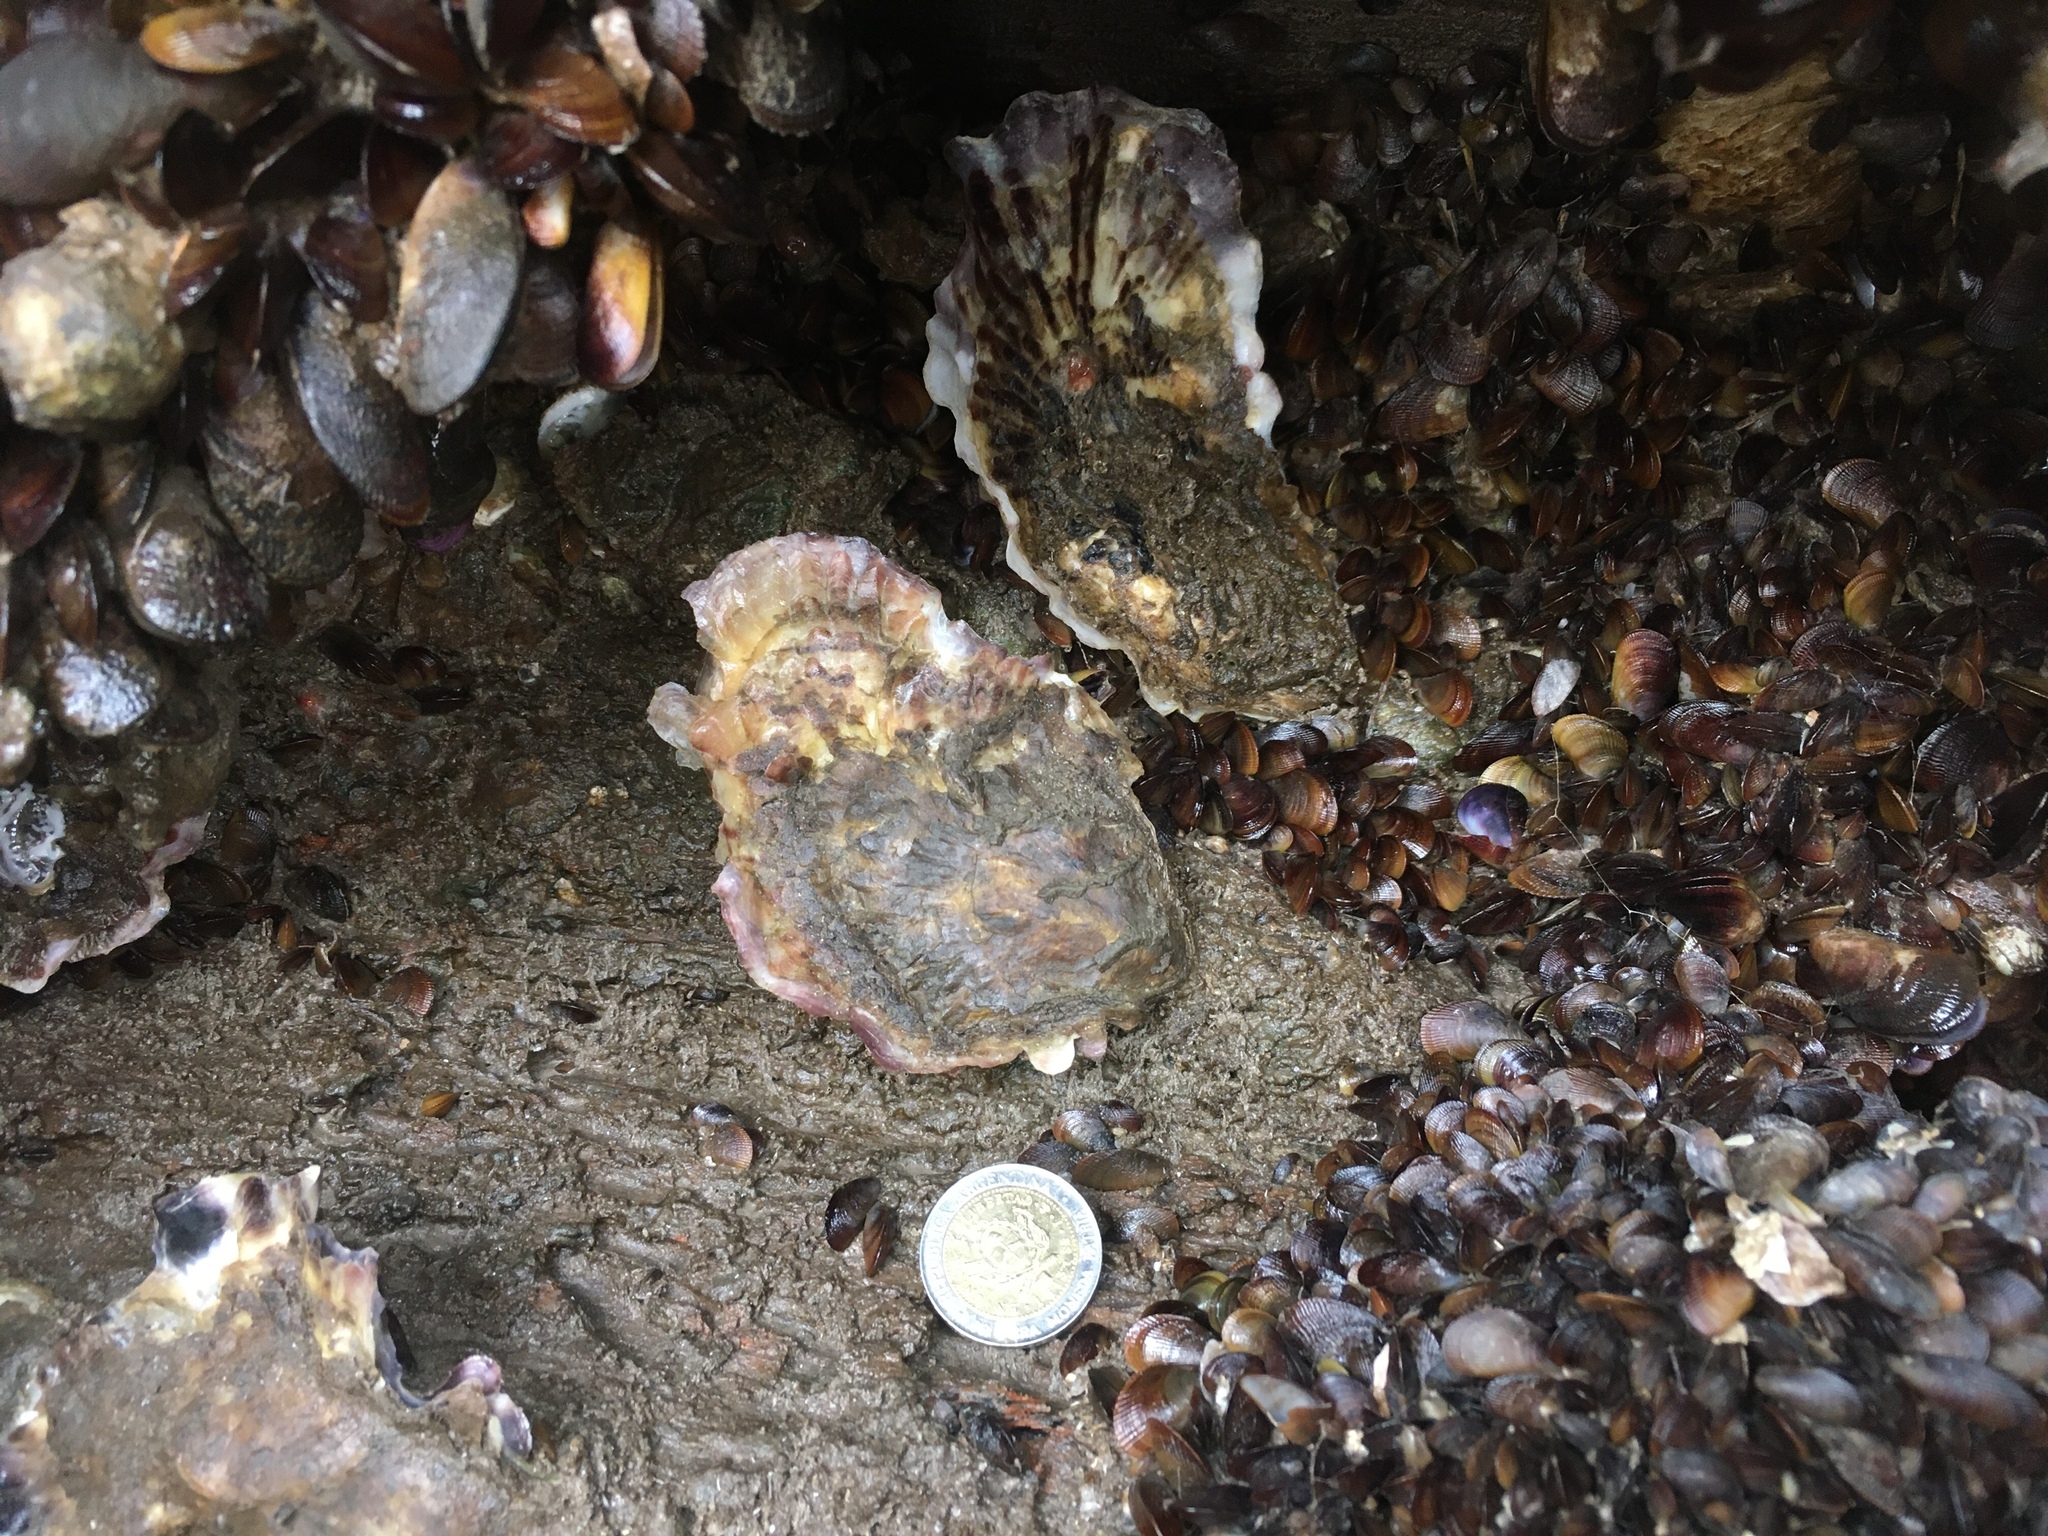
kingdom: Animalia
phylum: Mollusca
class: Bivalvia
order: Ostreida
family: Ostreidae
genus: Magallana
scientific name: Magallana gigas
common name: Pacific oyster
